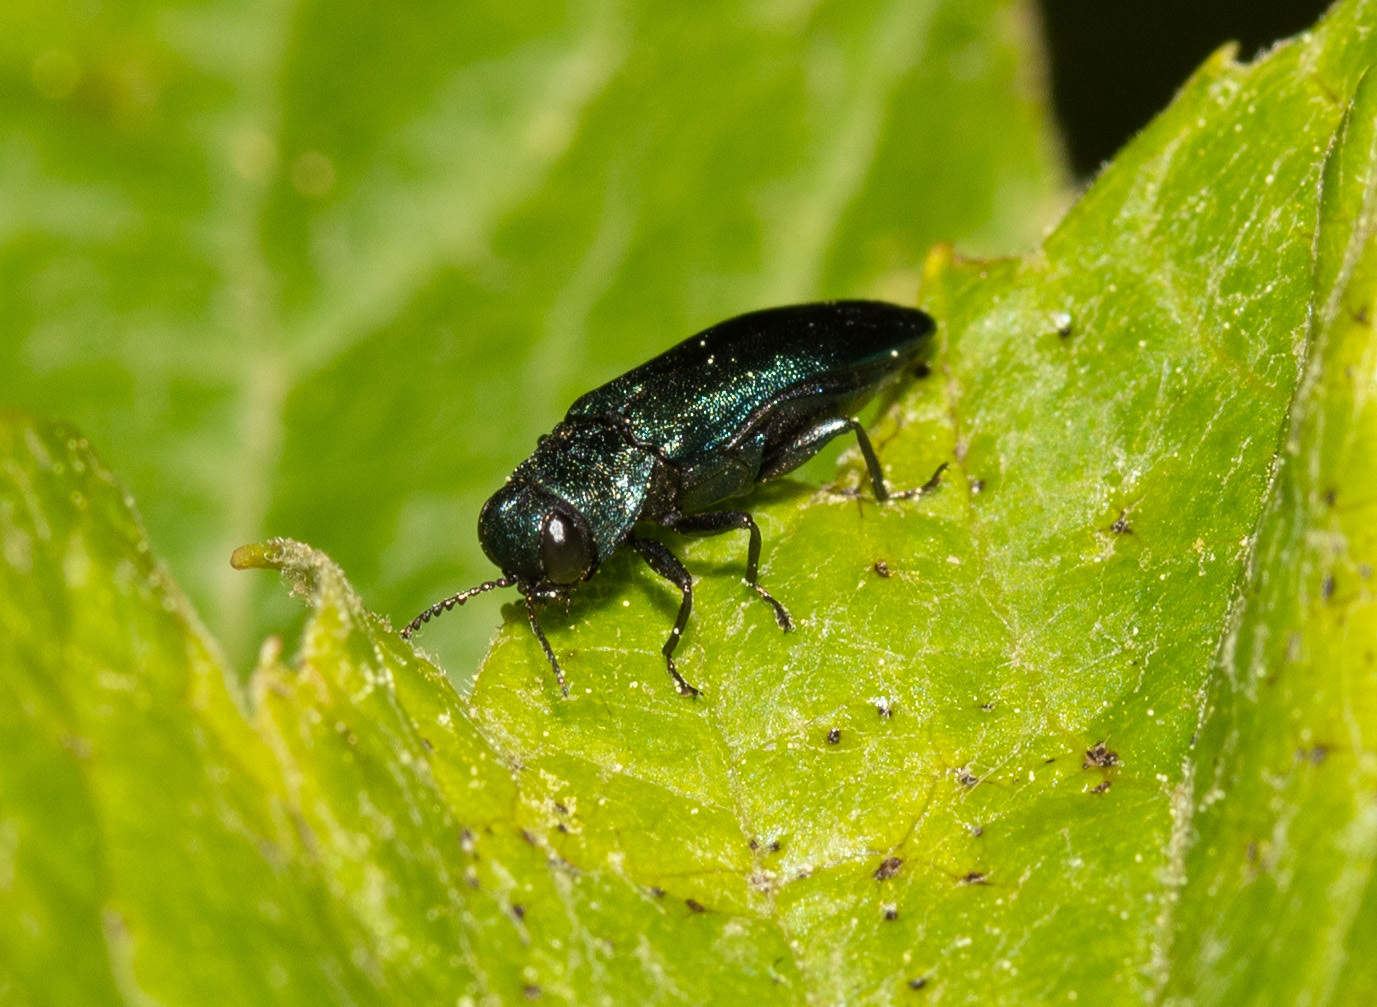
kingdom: Animalia
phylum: Arthropoda
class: Insecta
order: Coleoptera
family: Buprestidae
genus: Agrilus
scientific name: Agrilus cyanescens
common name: Bluish borer beetle
